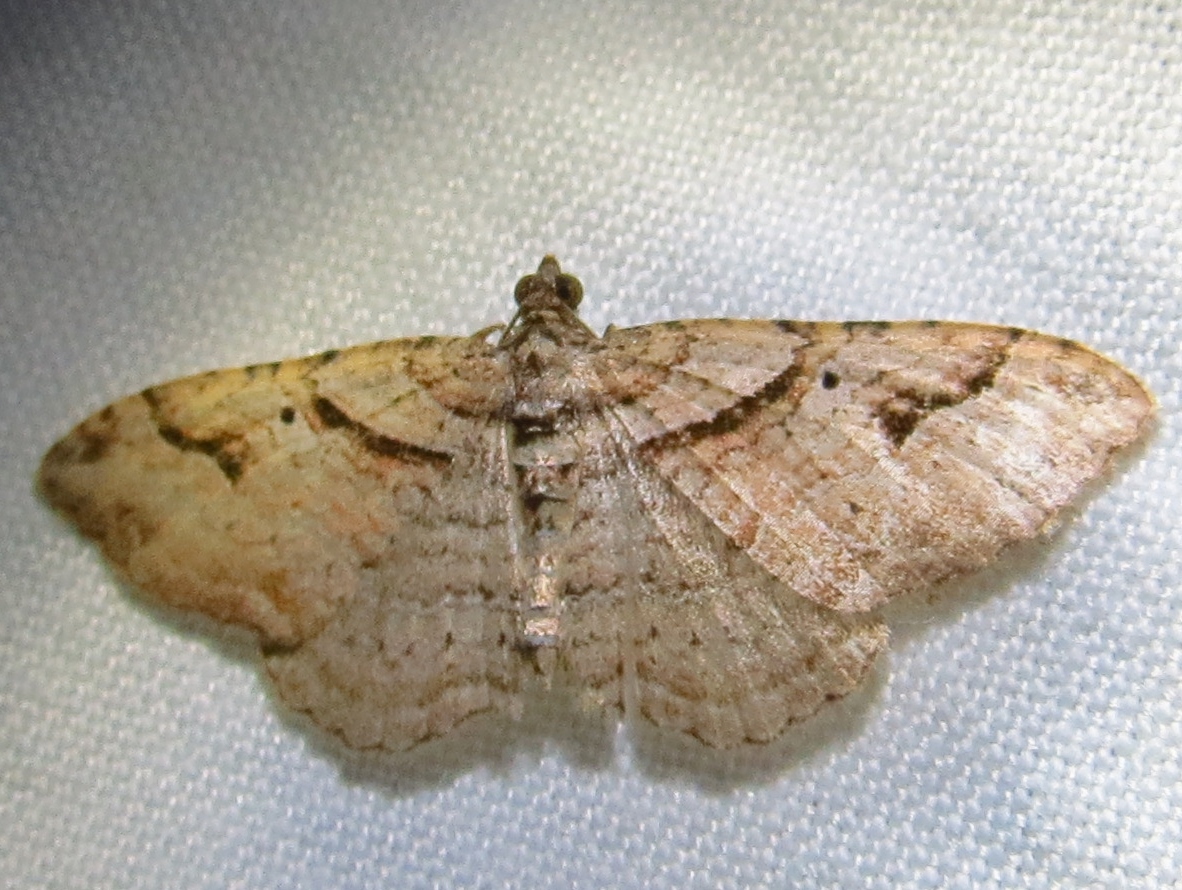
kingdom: Animalia
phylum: Arthropoda
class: Insecta
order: Lepidoptera
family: Geometridae
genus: Costaconvexa
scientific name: Costaconvexa centrostrigaria
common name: Bent-line carpet
